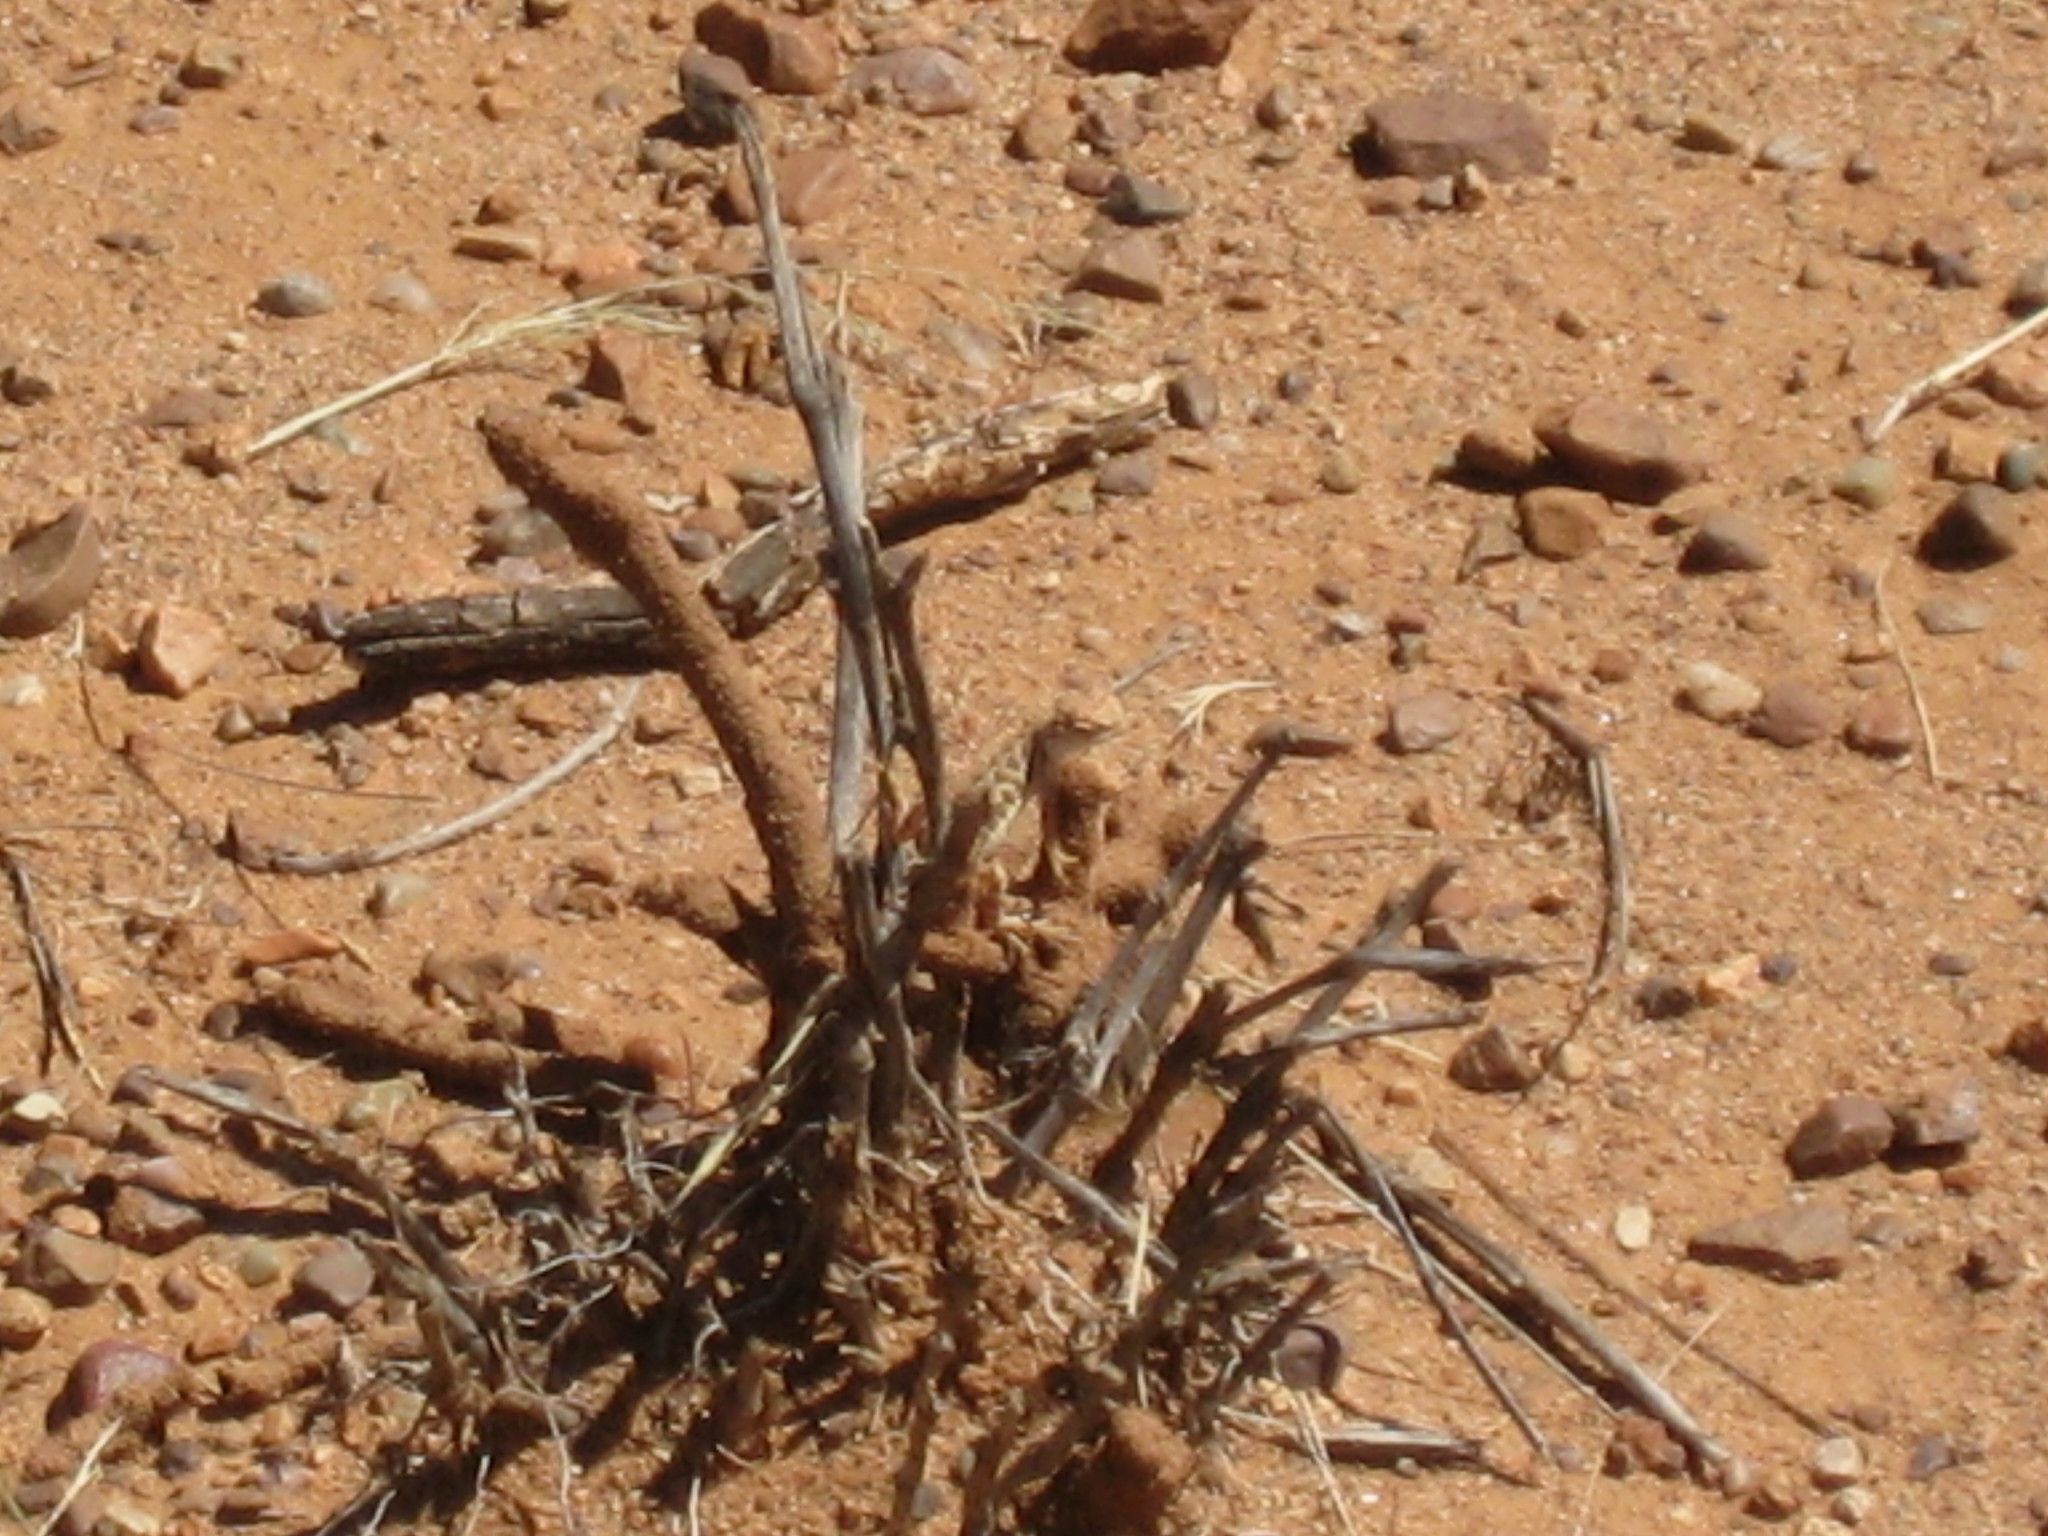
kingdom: Animalia
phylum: Chordata
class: Squamata
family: Phrynosomatidae
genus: Holbrookia
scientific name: Holbrookia elegans
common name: Elegant earless lizard
